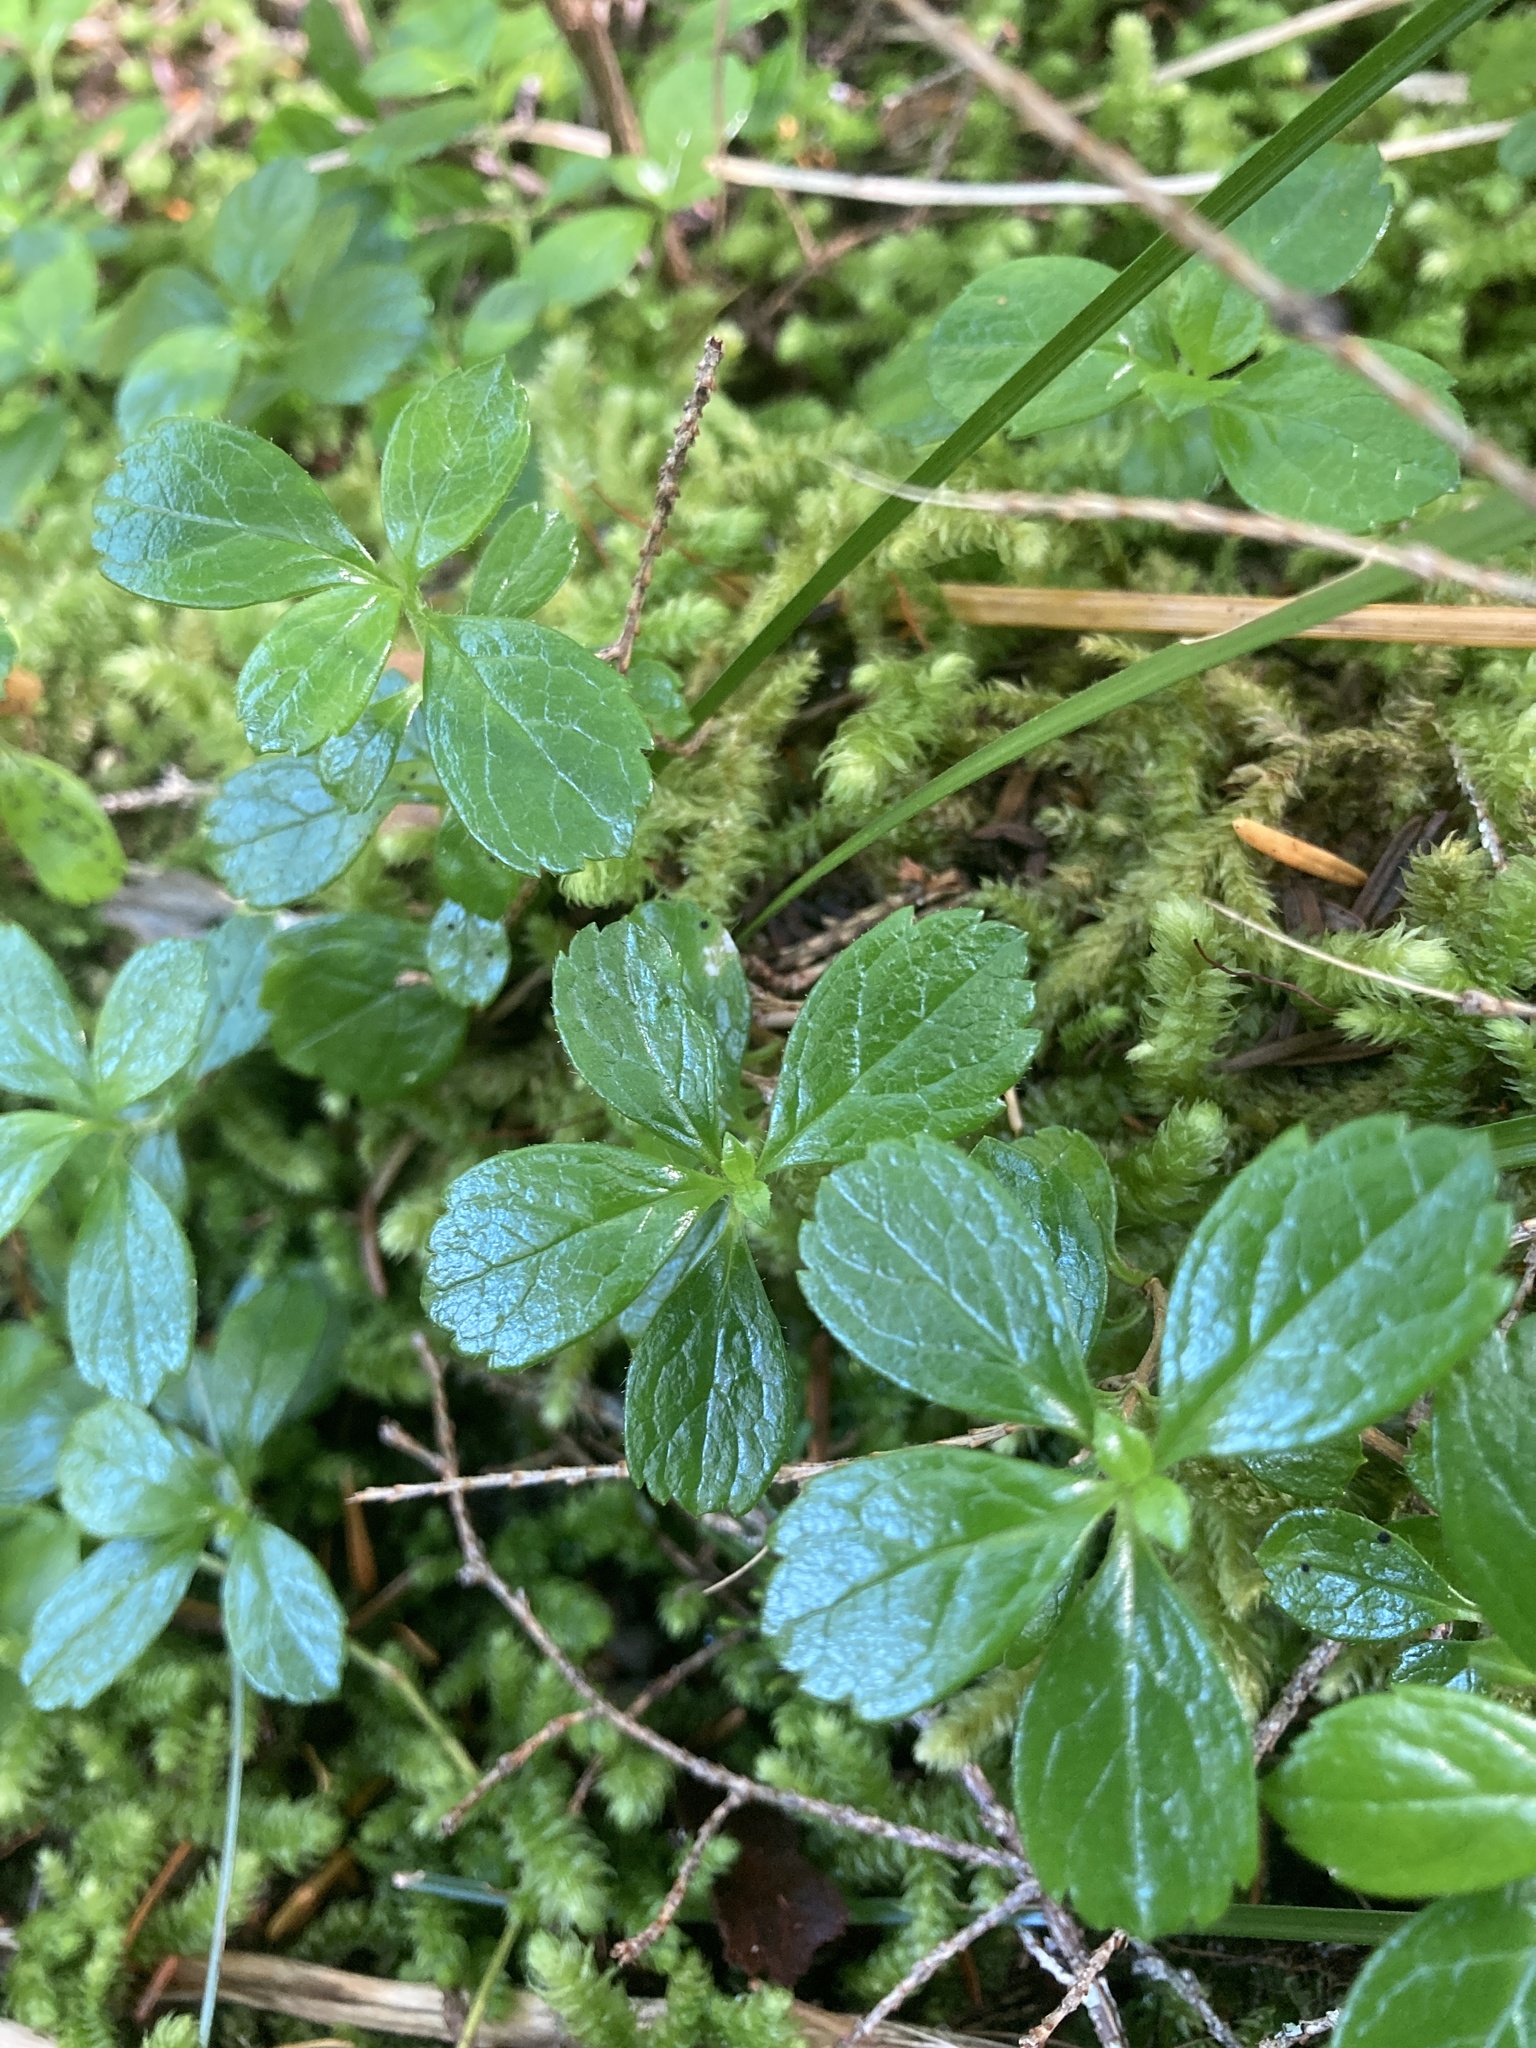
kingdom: Plantae
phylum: Tracheophyta
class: Magnoliopsida
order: Dipsacales
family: Caprifoliaceae
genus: Linnaea
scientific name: Linnaea borealis
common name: Twinflower
